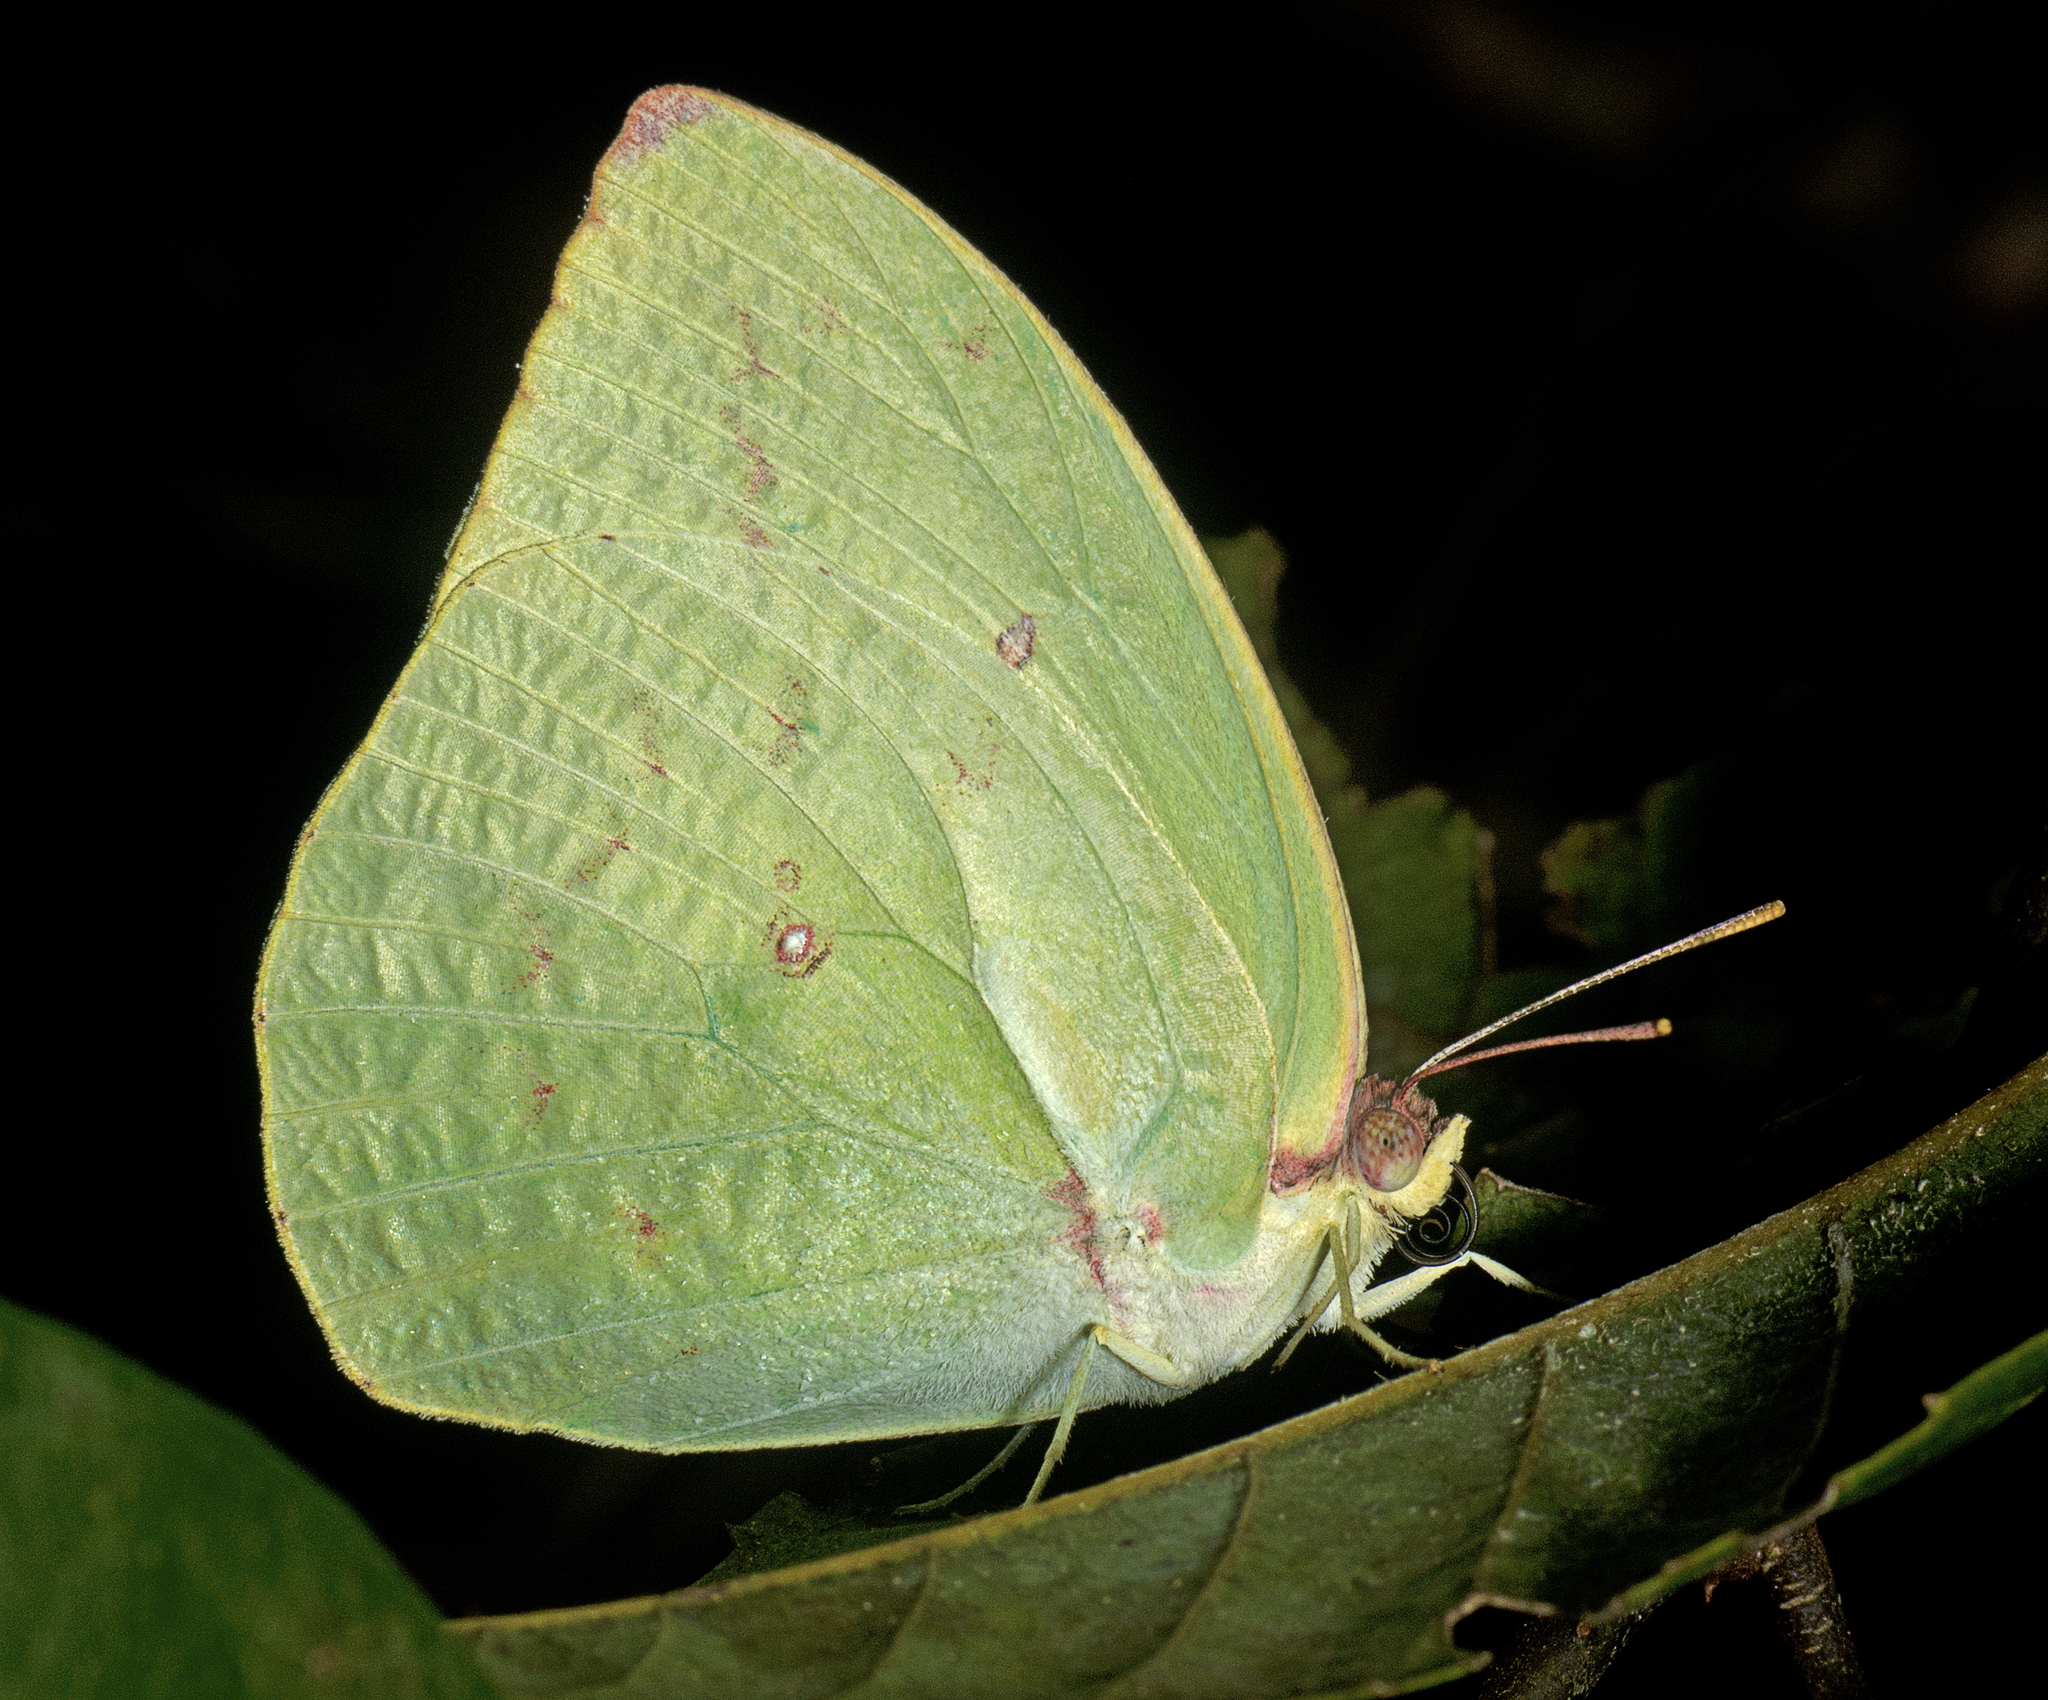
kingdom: Animalia
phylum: Arthropoda
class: Insecta
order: Lepidoptera
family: Pieridae
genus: Catopsilia
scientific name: Catopsilia pomona
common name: Common emigrant
